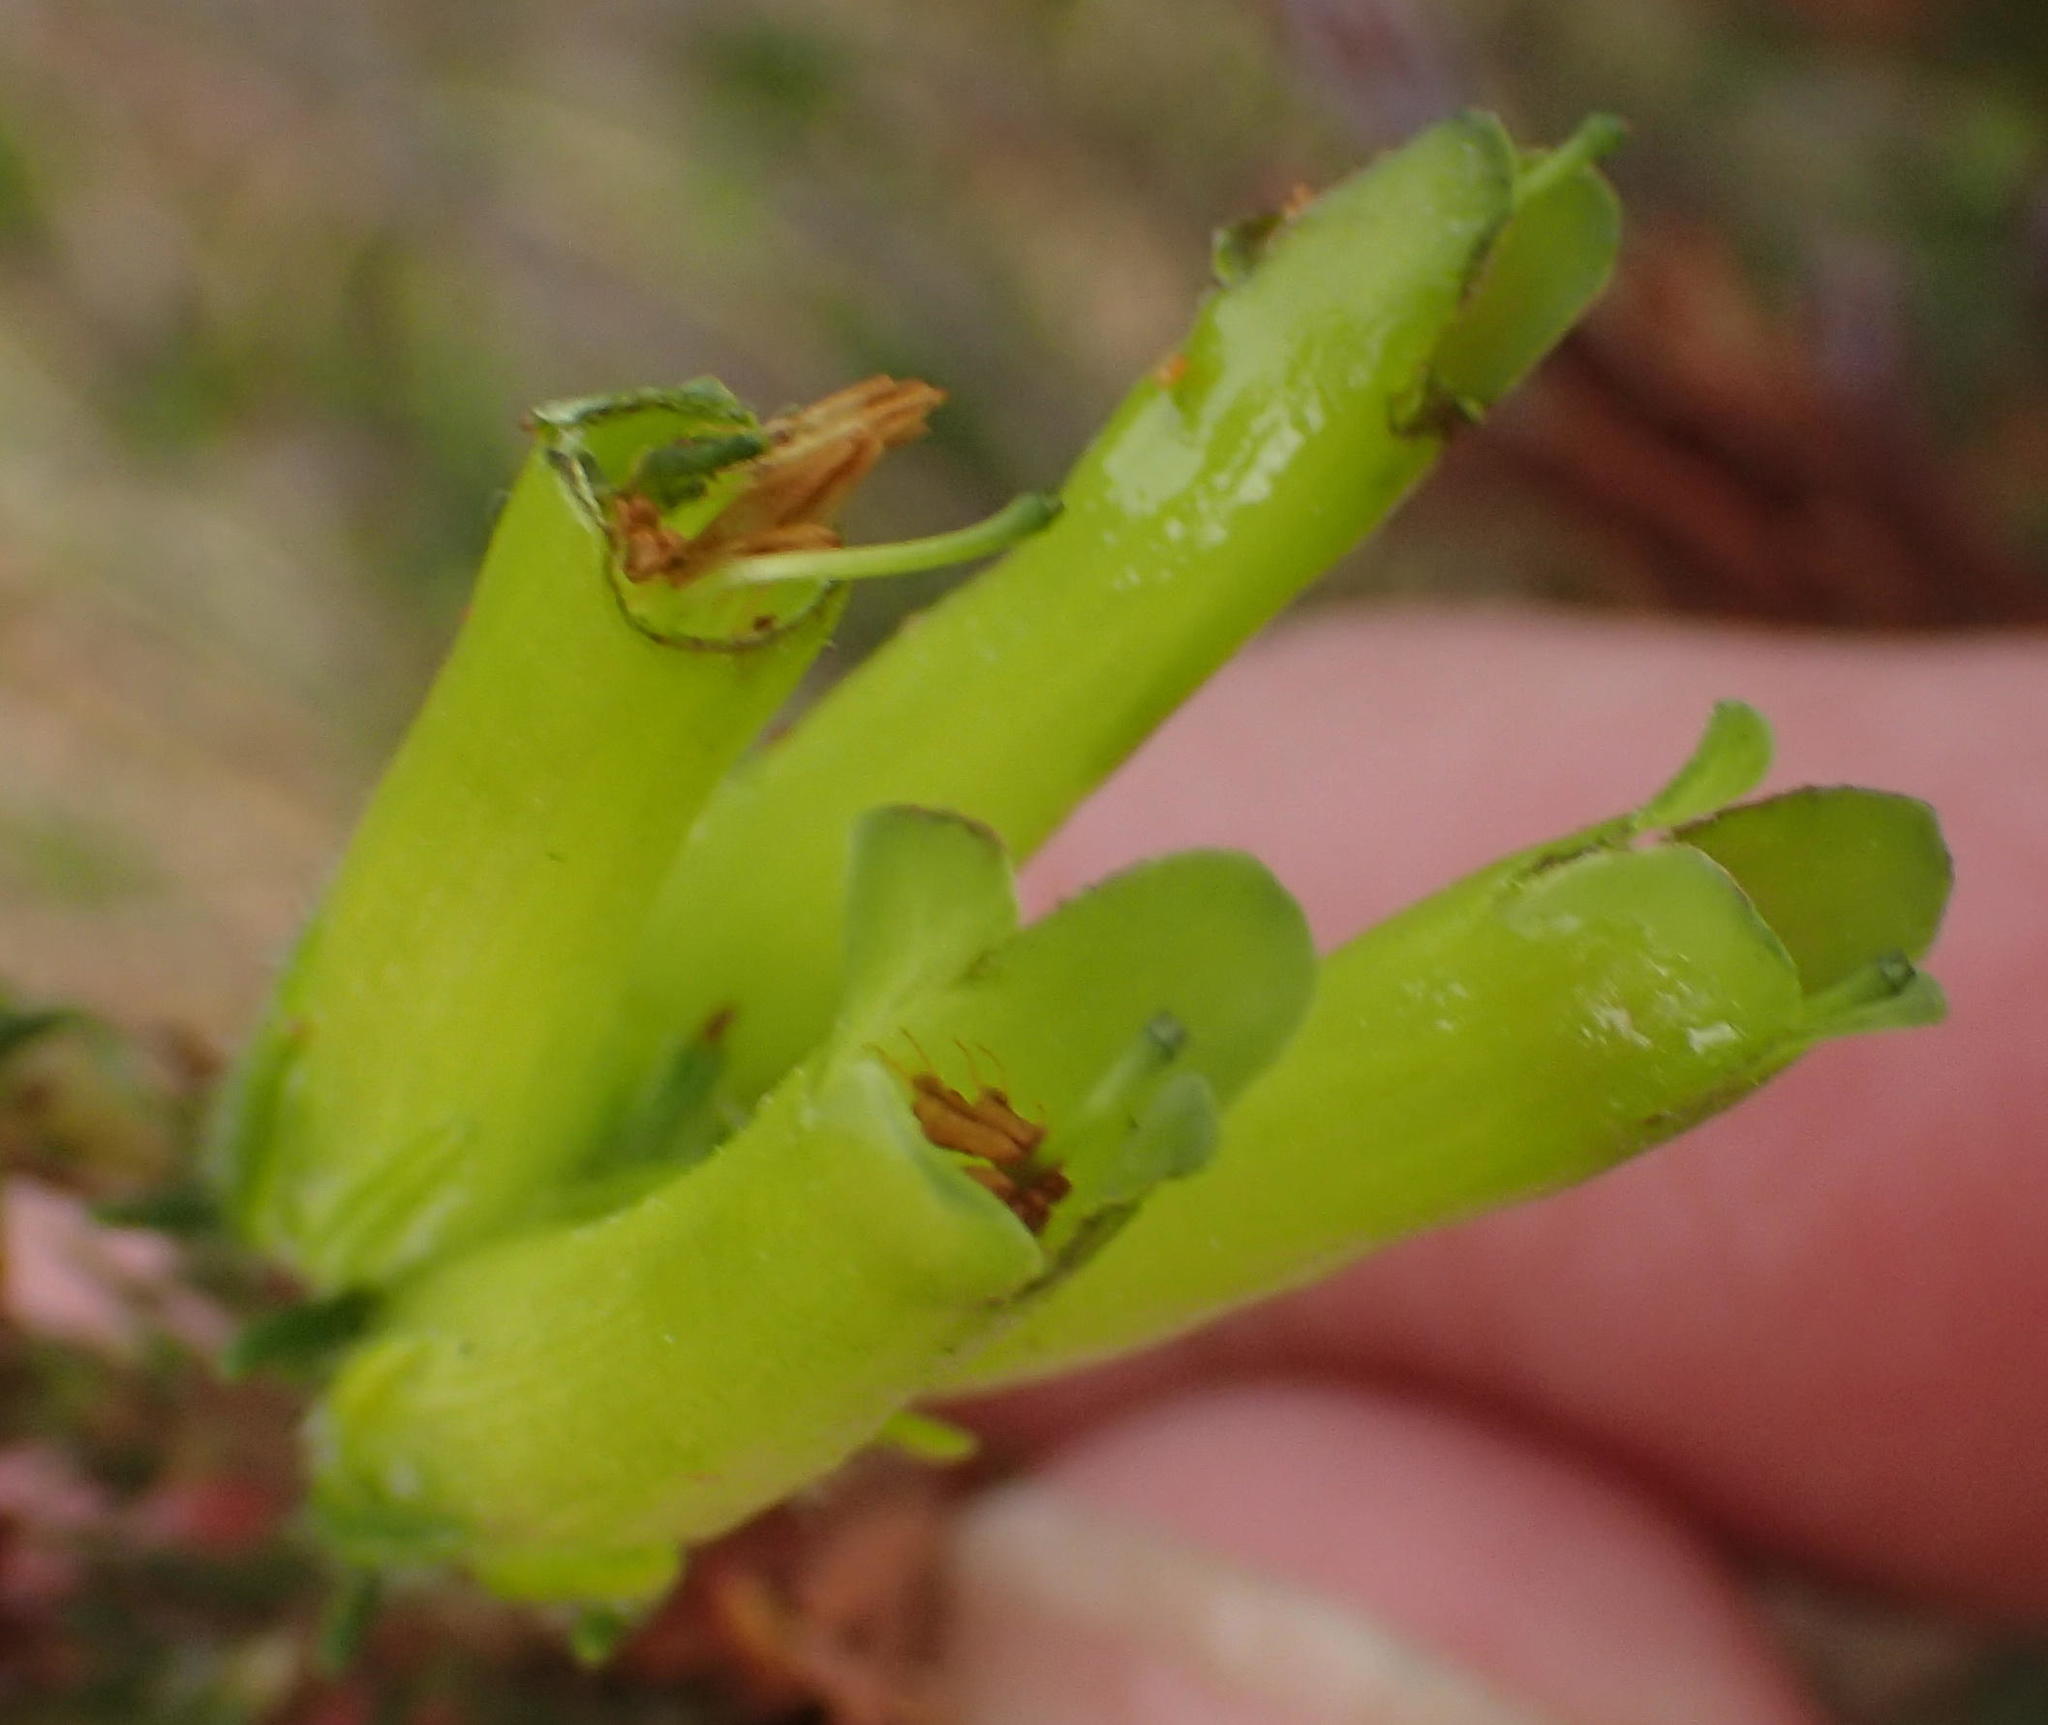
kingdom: Plantae
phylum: Tracheophyta
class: Magnoliopsida
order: Ericales
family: Ericaceae
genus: Erica
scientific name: Erica unicolor
